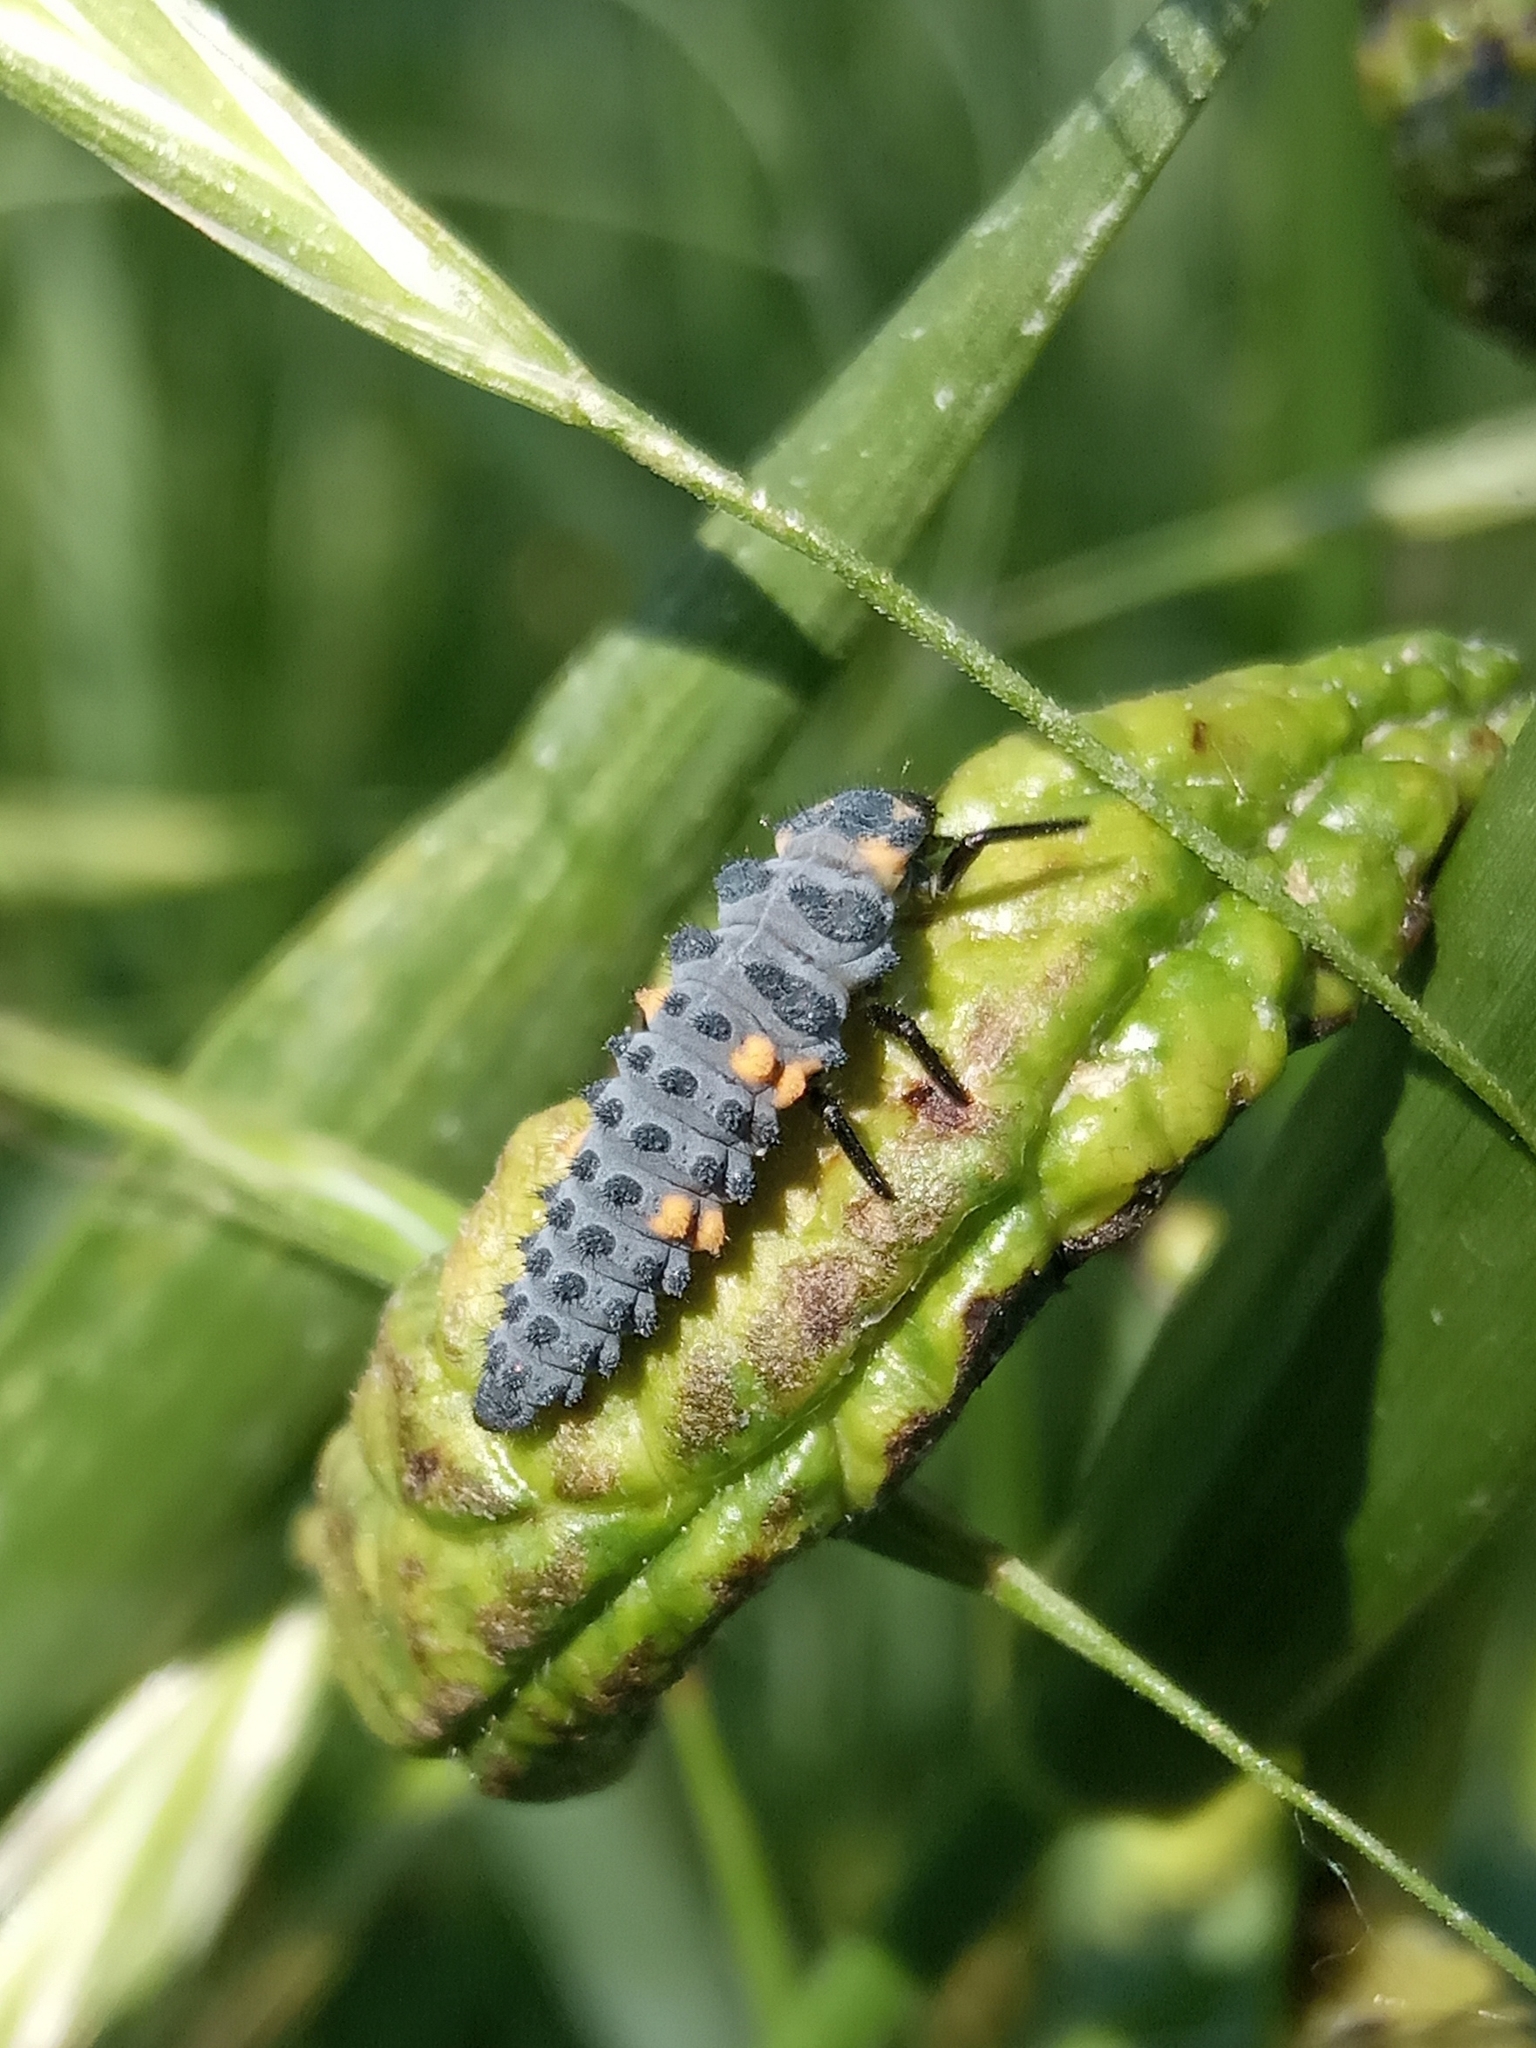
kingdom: Animalia
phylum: Arthropoda
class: Insecta
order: Coleoptera
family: Coccinellidae
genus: Coccinella
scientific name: Coccinella septempunctata
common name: Sevenspotted lady beetle
